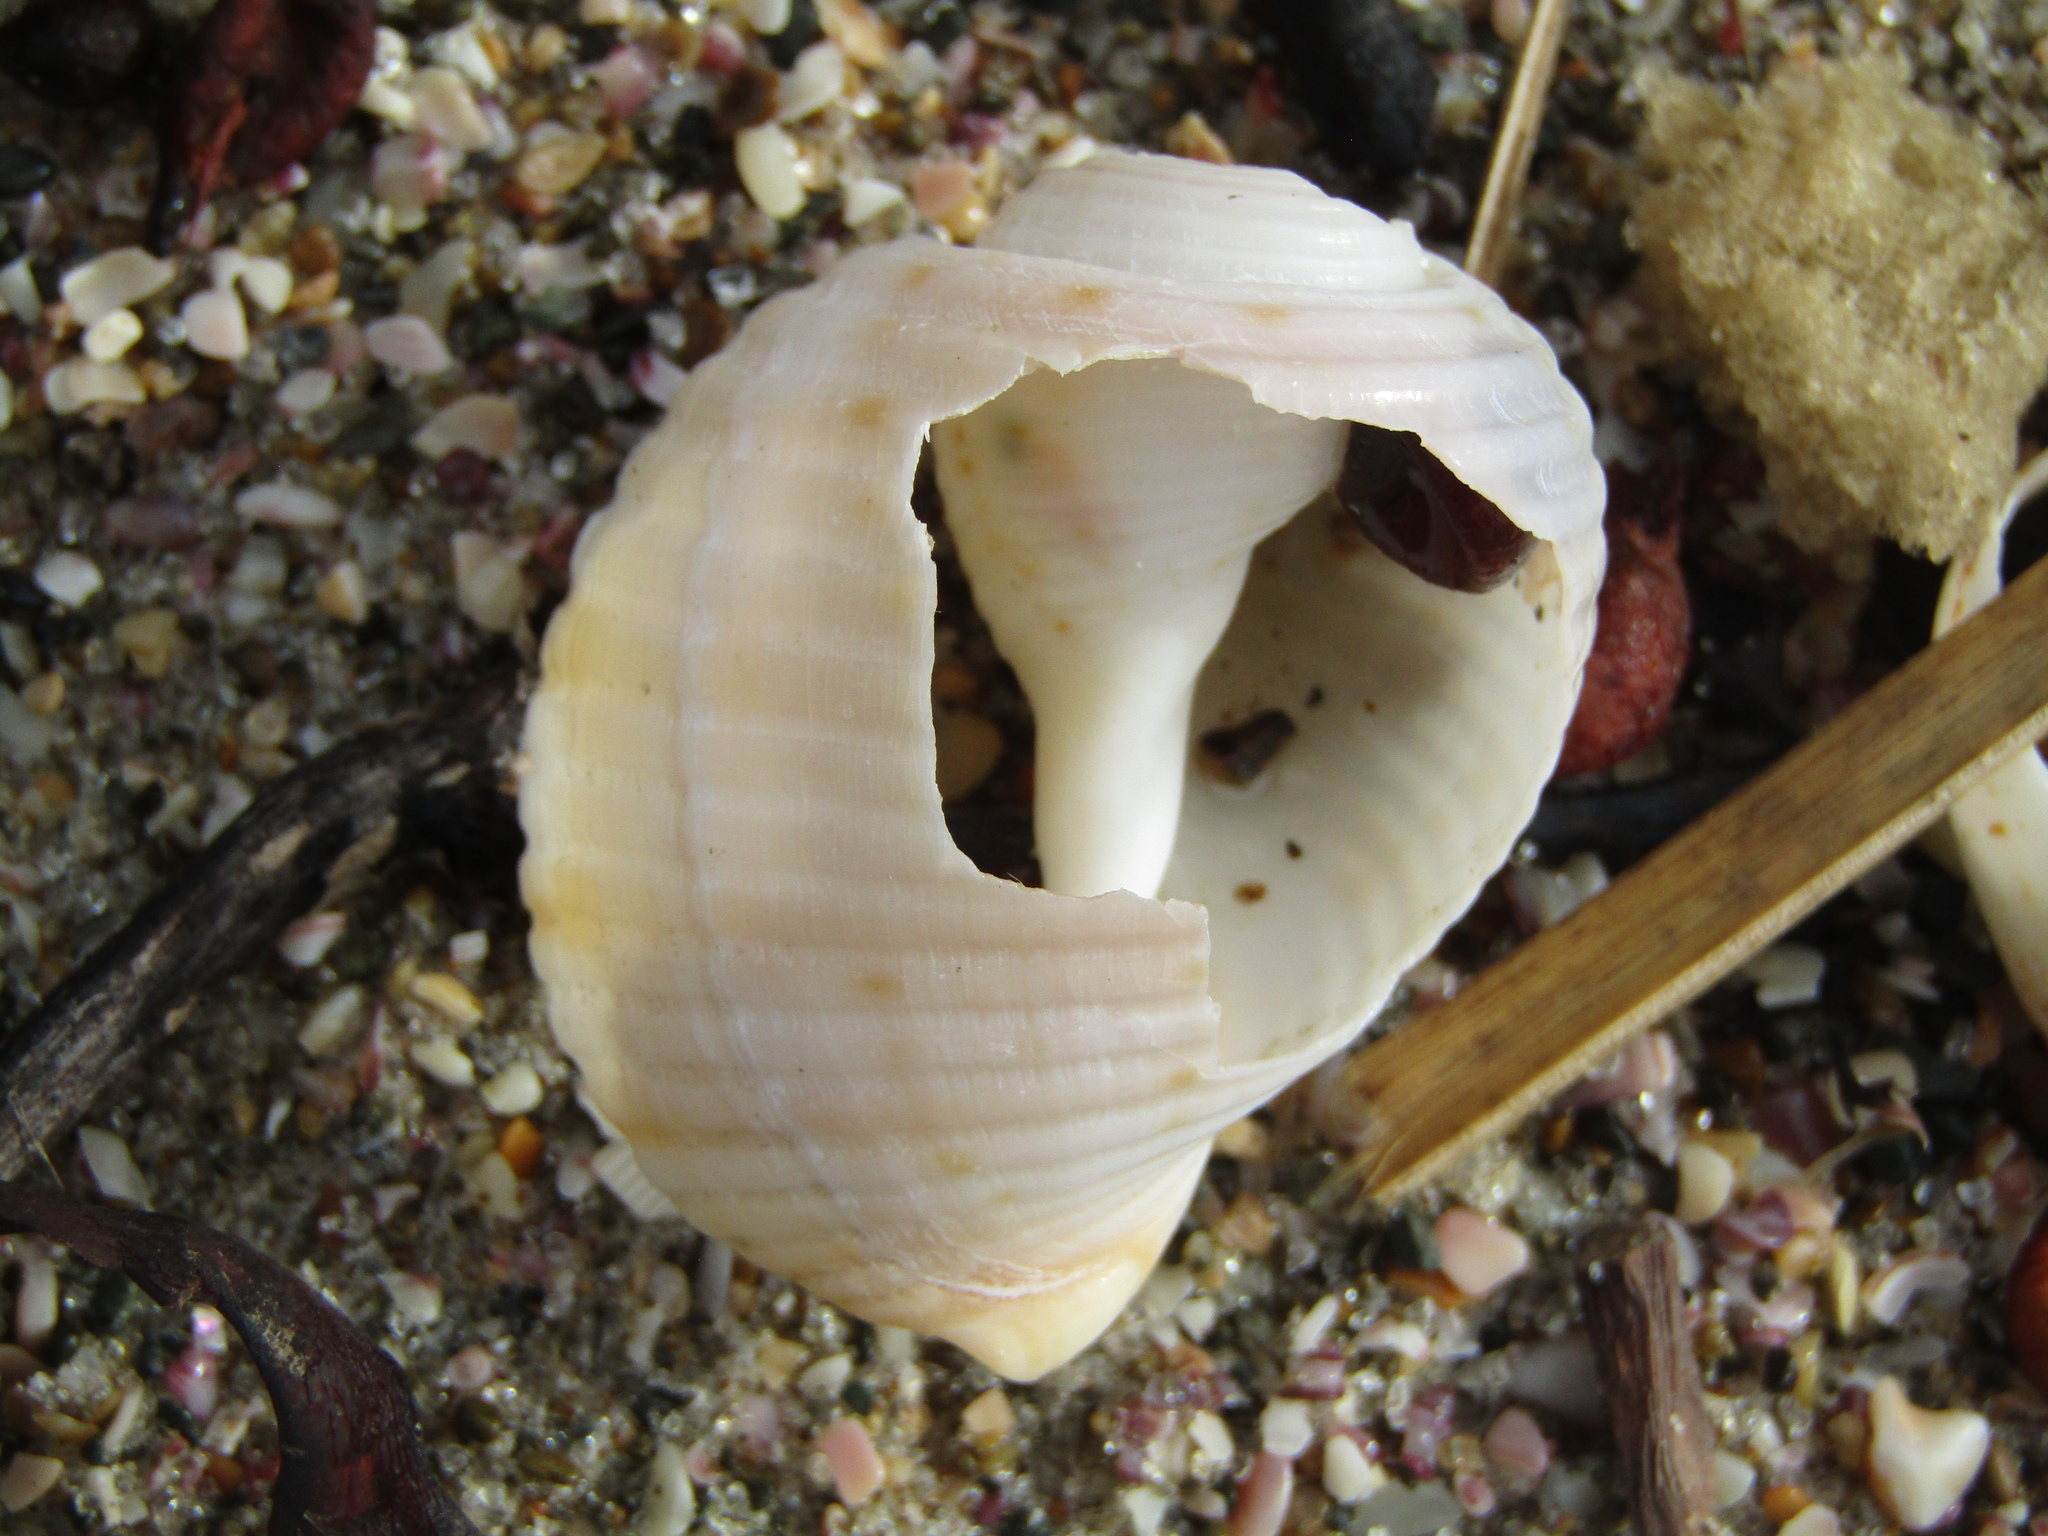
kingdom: Animalia
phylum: Mollusca
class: Gastropoda
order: Littorinimorpha
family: Tonnidae
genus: Tonna
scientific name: Tonna tankervillii
